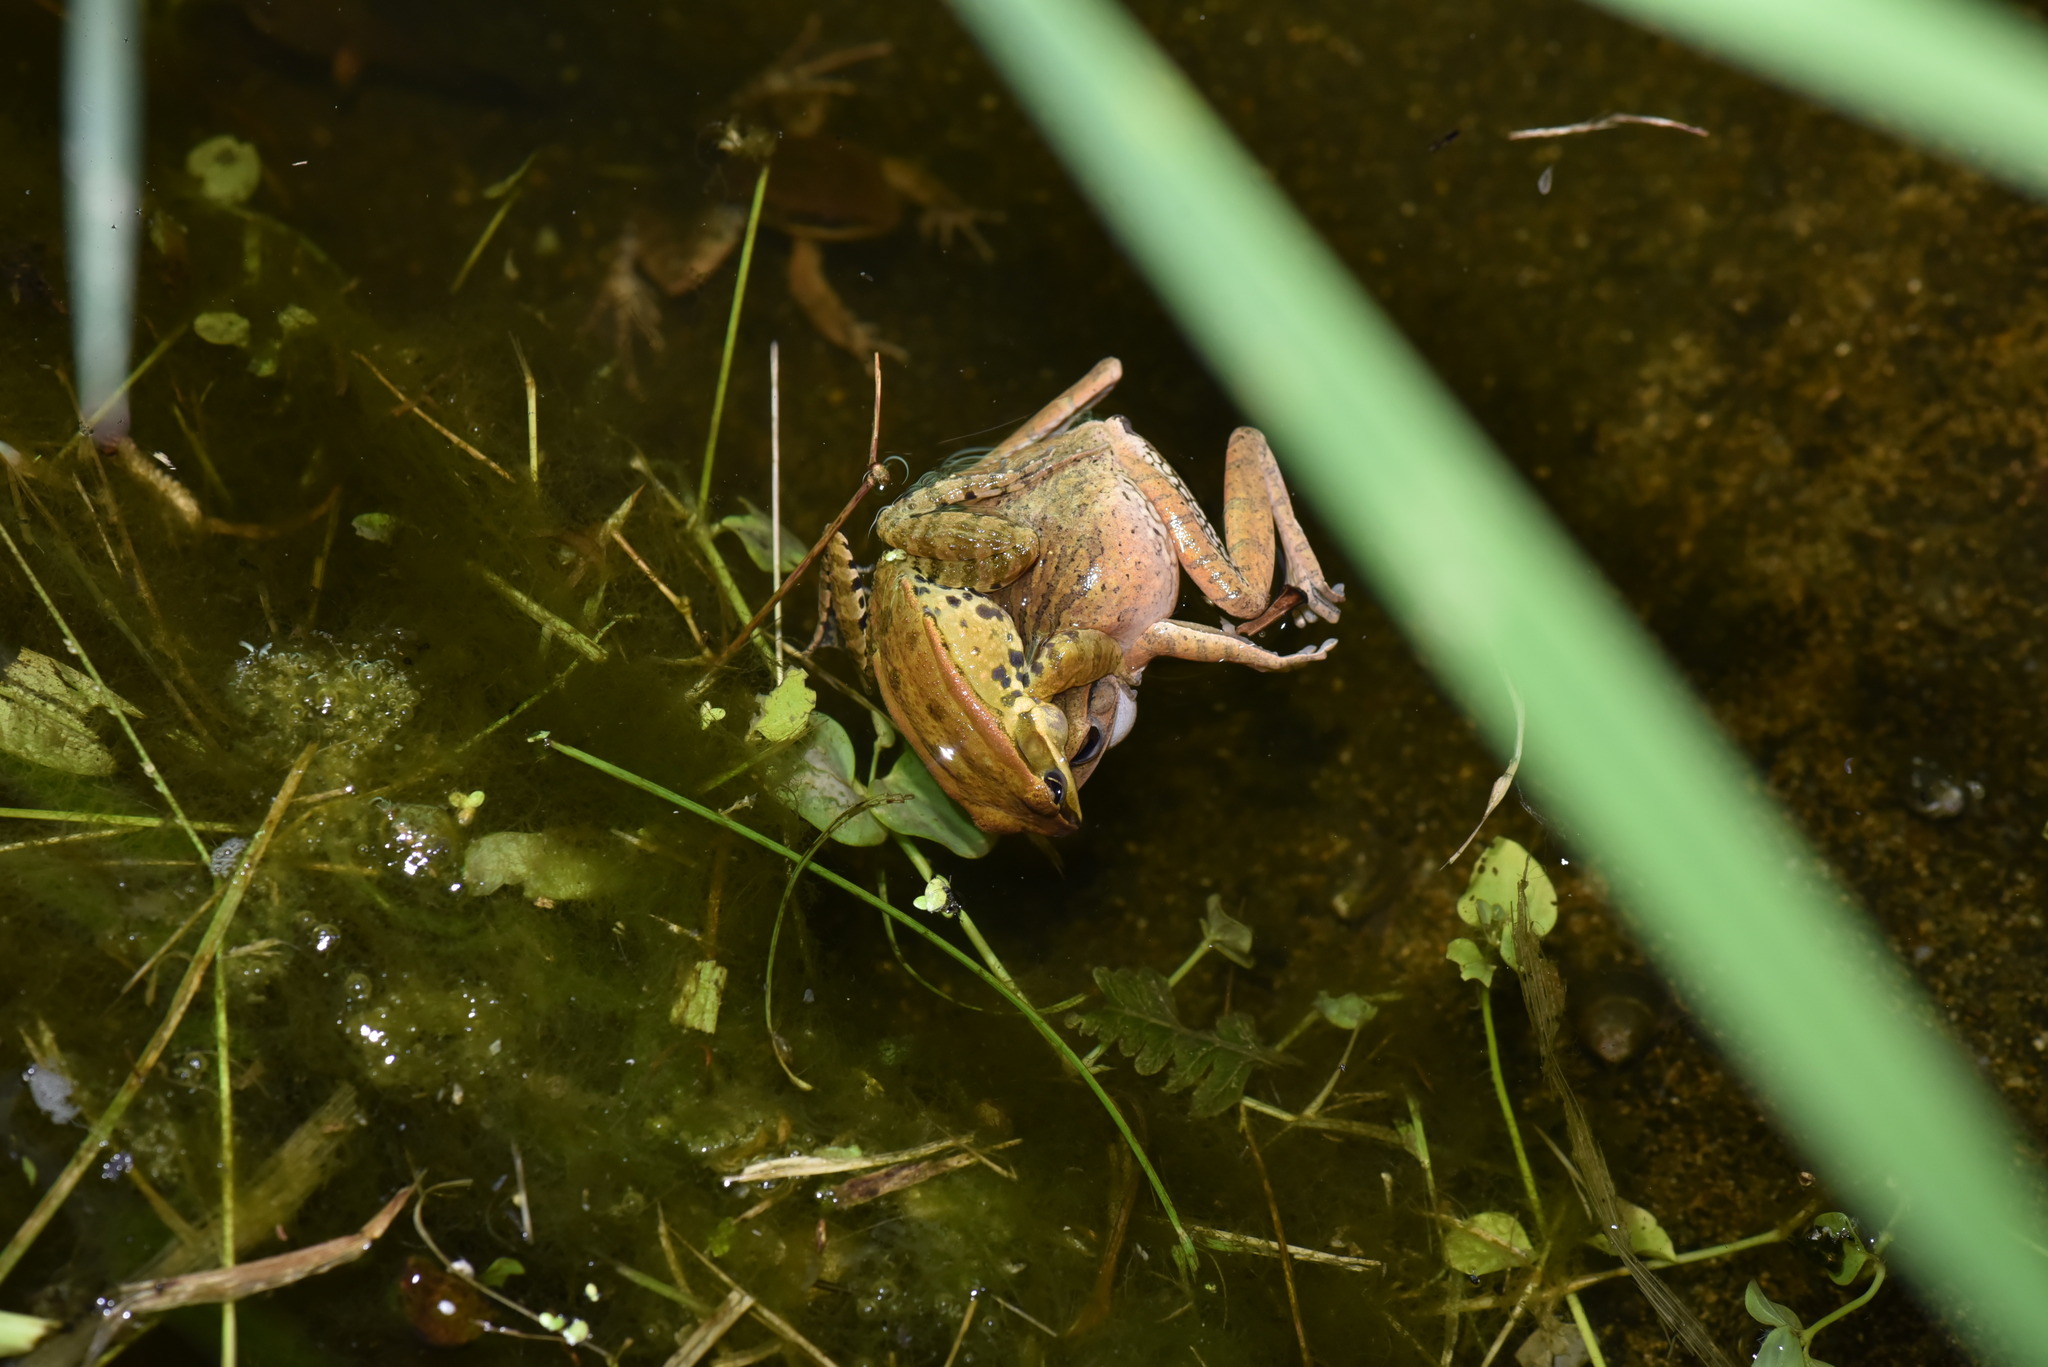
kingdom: Animalia
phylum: Chordata
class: Amphibia
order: Anura
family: Ranidae
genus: Hylarana
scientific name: Hylarana latouchii
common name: Broad-folded frog
